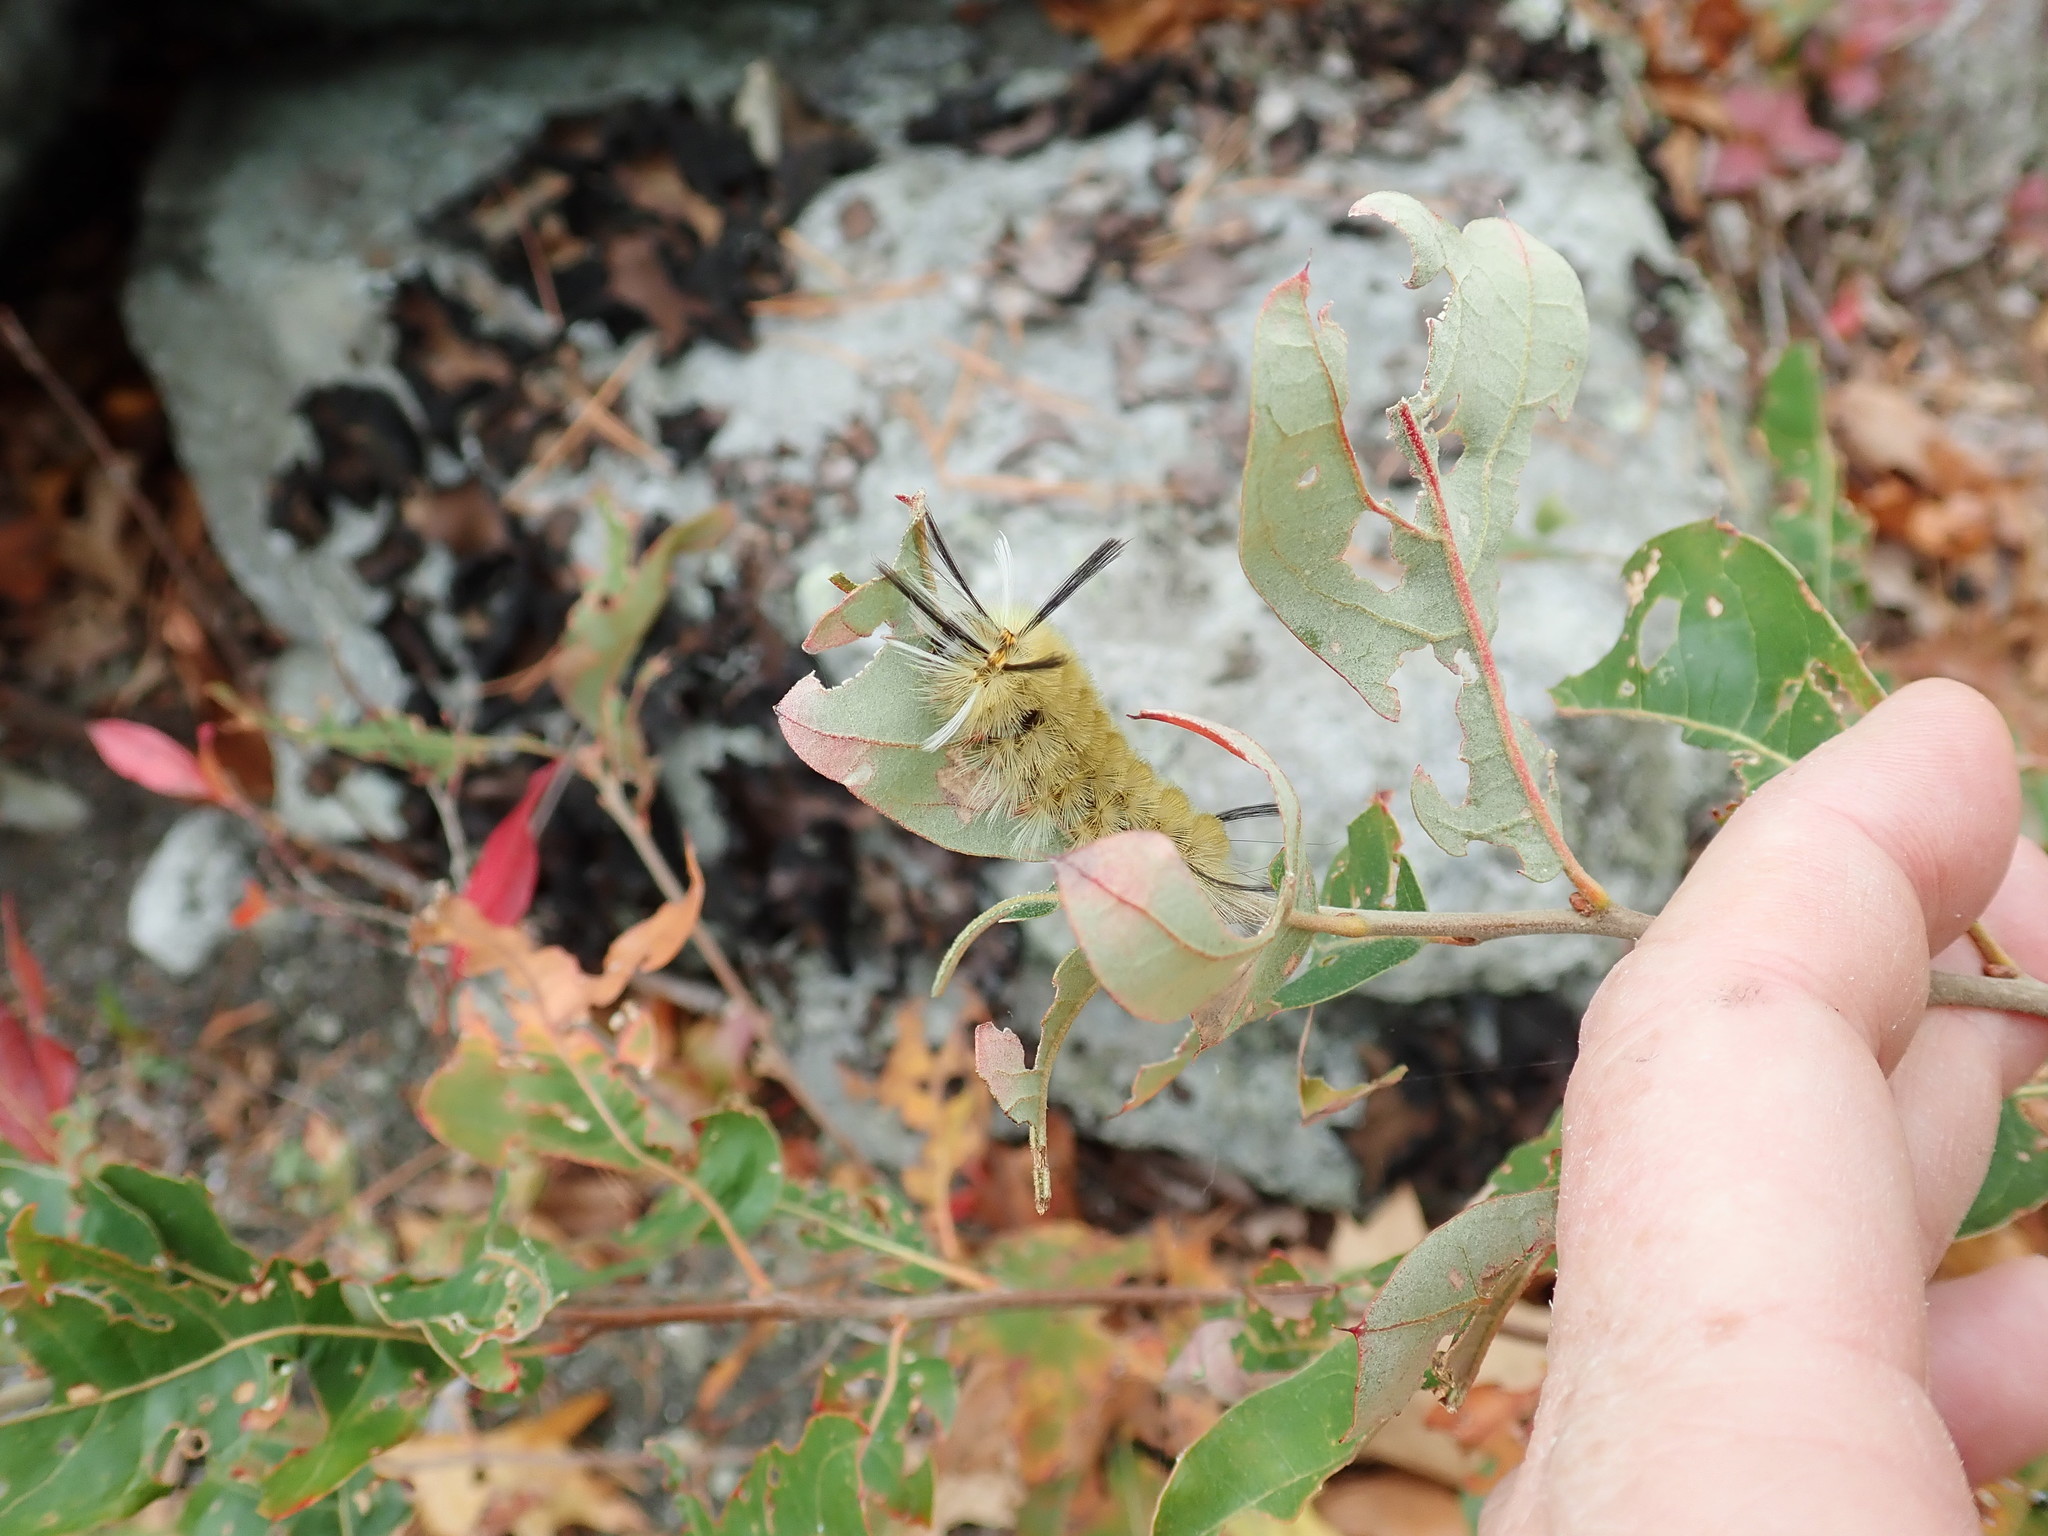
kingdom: Animalia
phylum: Arthropoda
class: Insecta
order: Lepidoptera
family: Erebidae
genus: Halysidota
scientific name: Halysidota tessellaris
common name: Banded tussock moth
